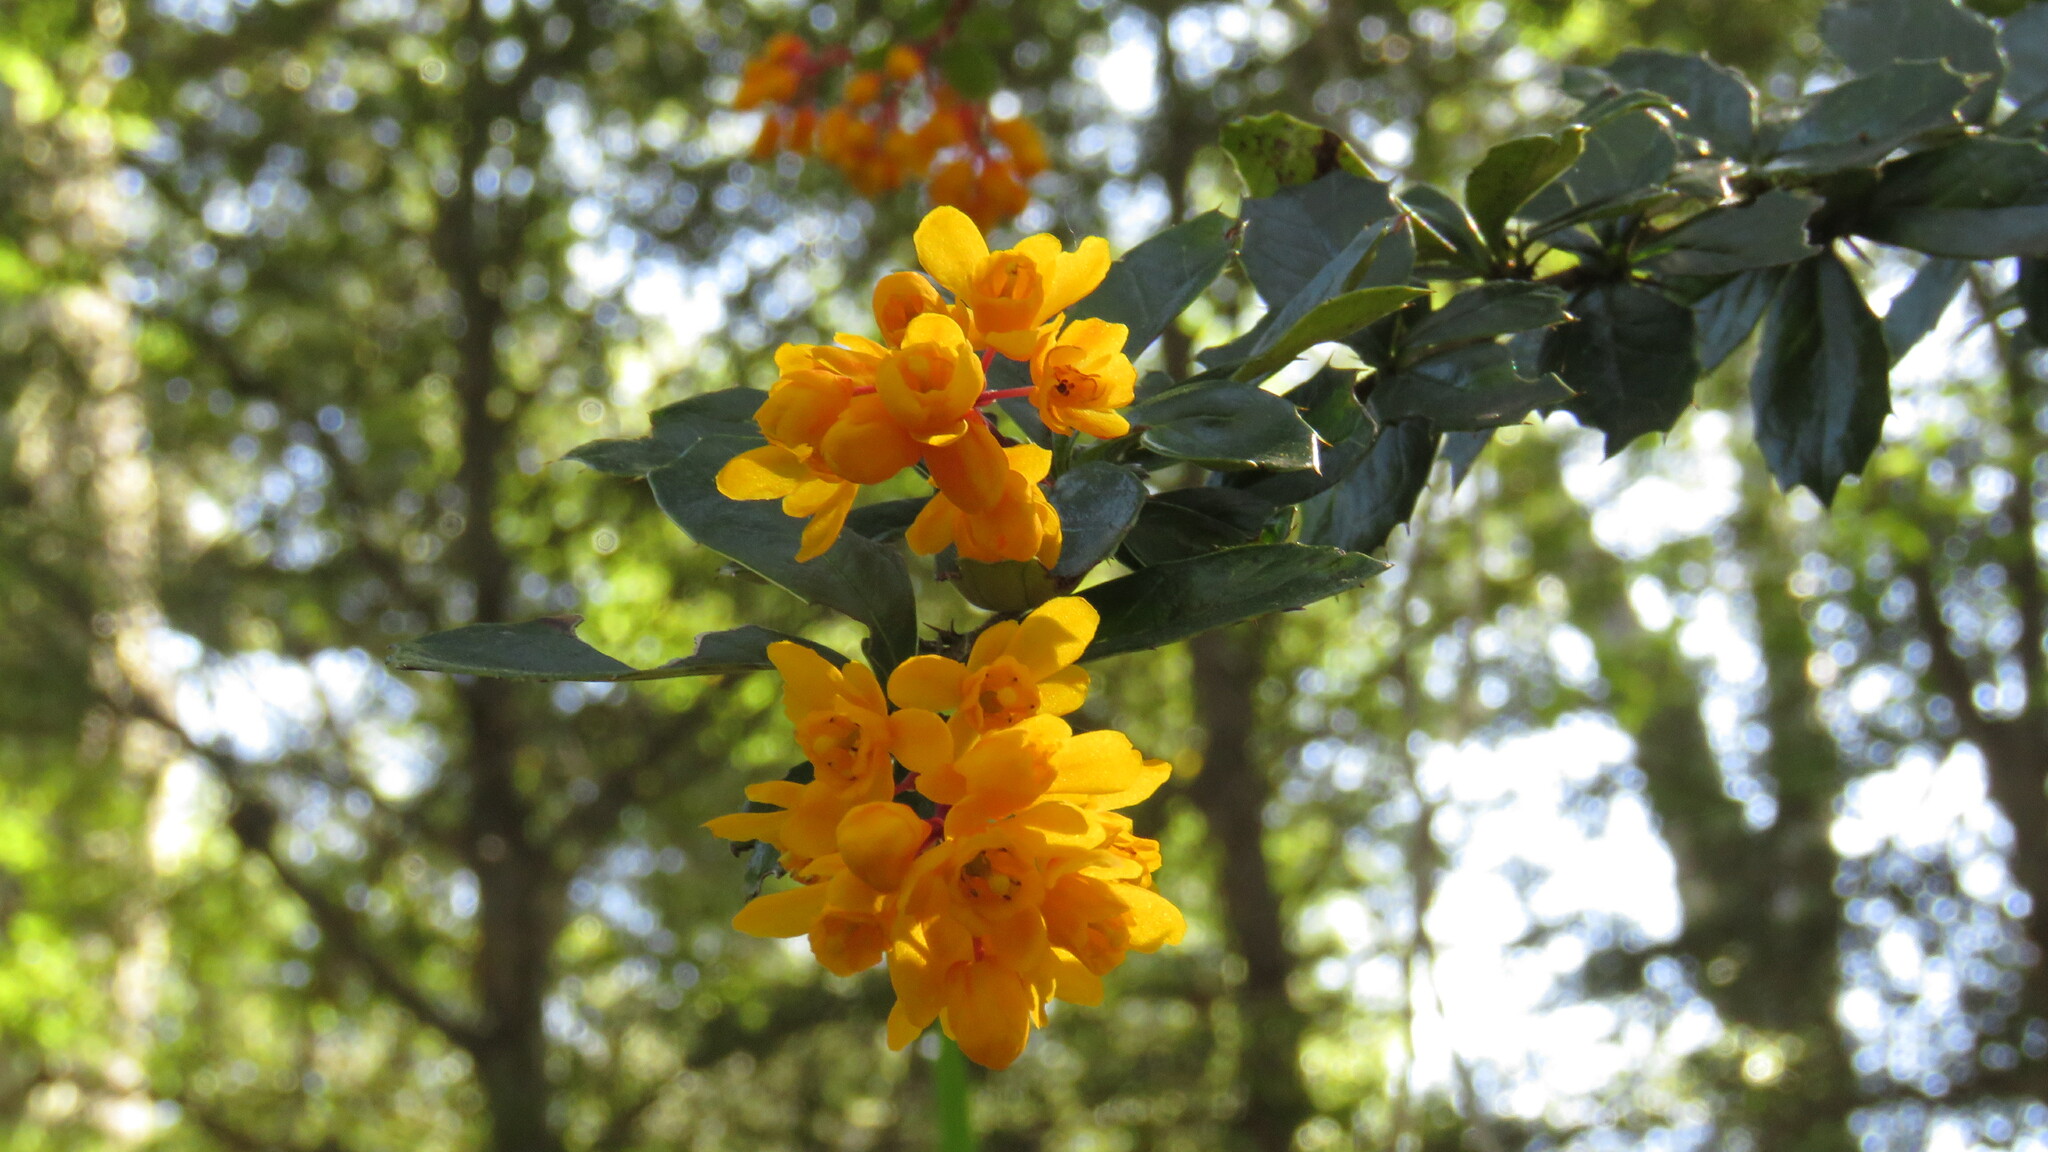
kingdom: Plantae
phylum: Tracheophyta
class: Magnoliopsida
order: Ranunculales
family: Berberidaceae
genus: Berberis
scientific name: Berberis darwinii
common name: Darwin's barberry
